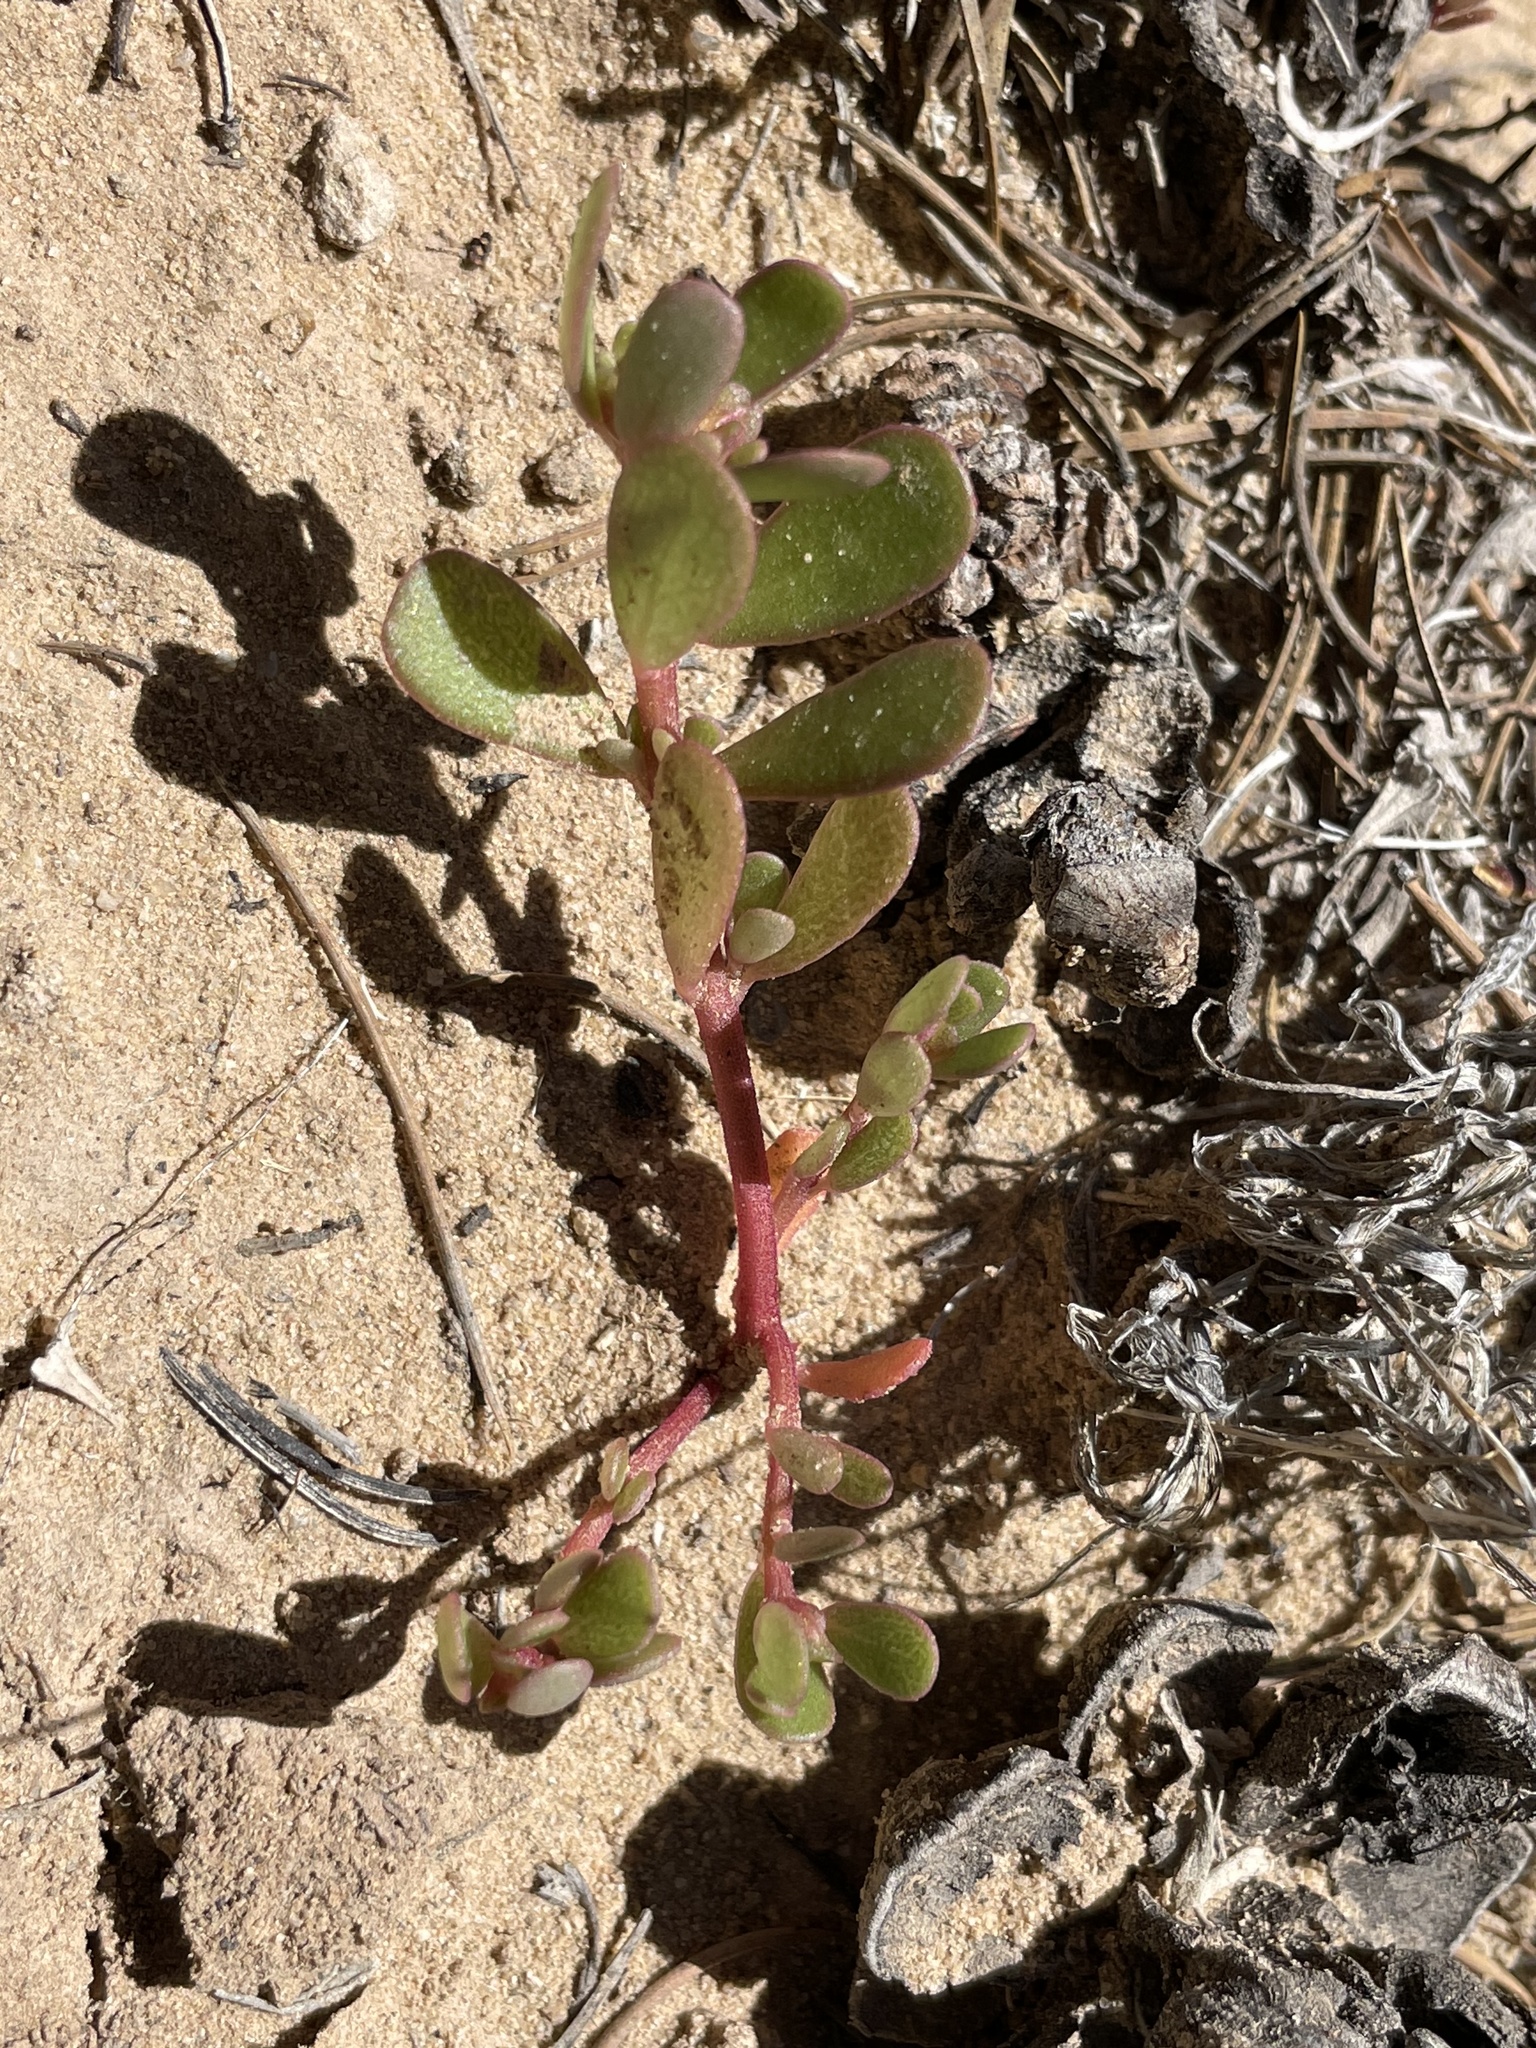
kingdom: Plantae
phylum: Tracheophyta
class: Magnoliopsida
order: Caryophyllales
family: Portulacaceae
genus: Portulaca
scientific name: Portulaca oleracea
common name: Common purslane
